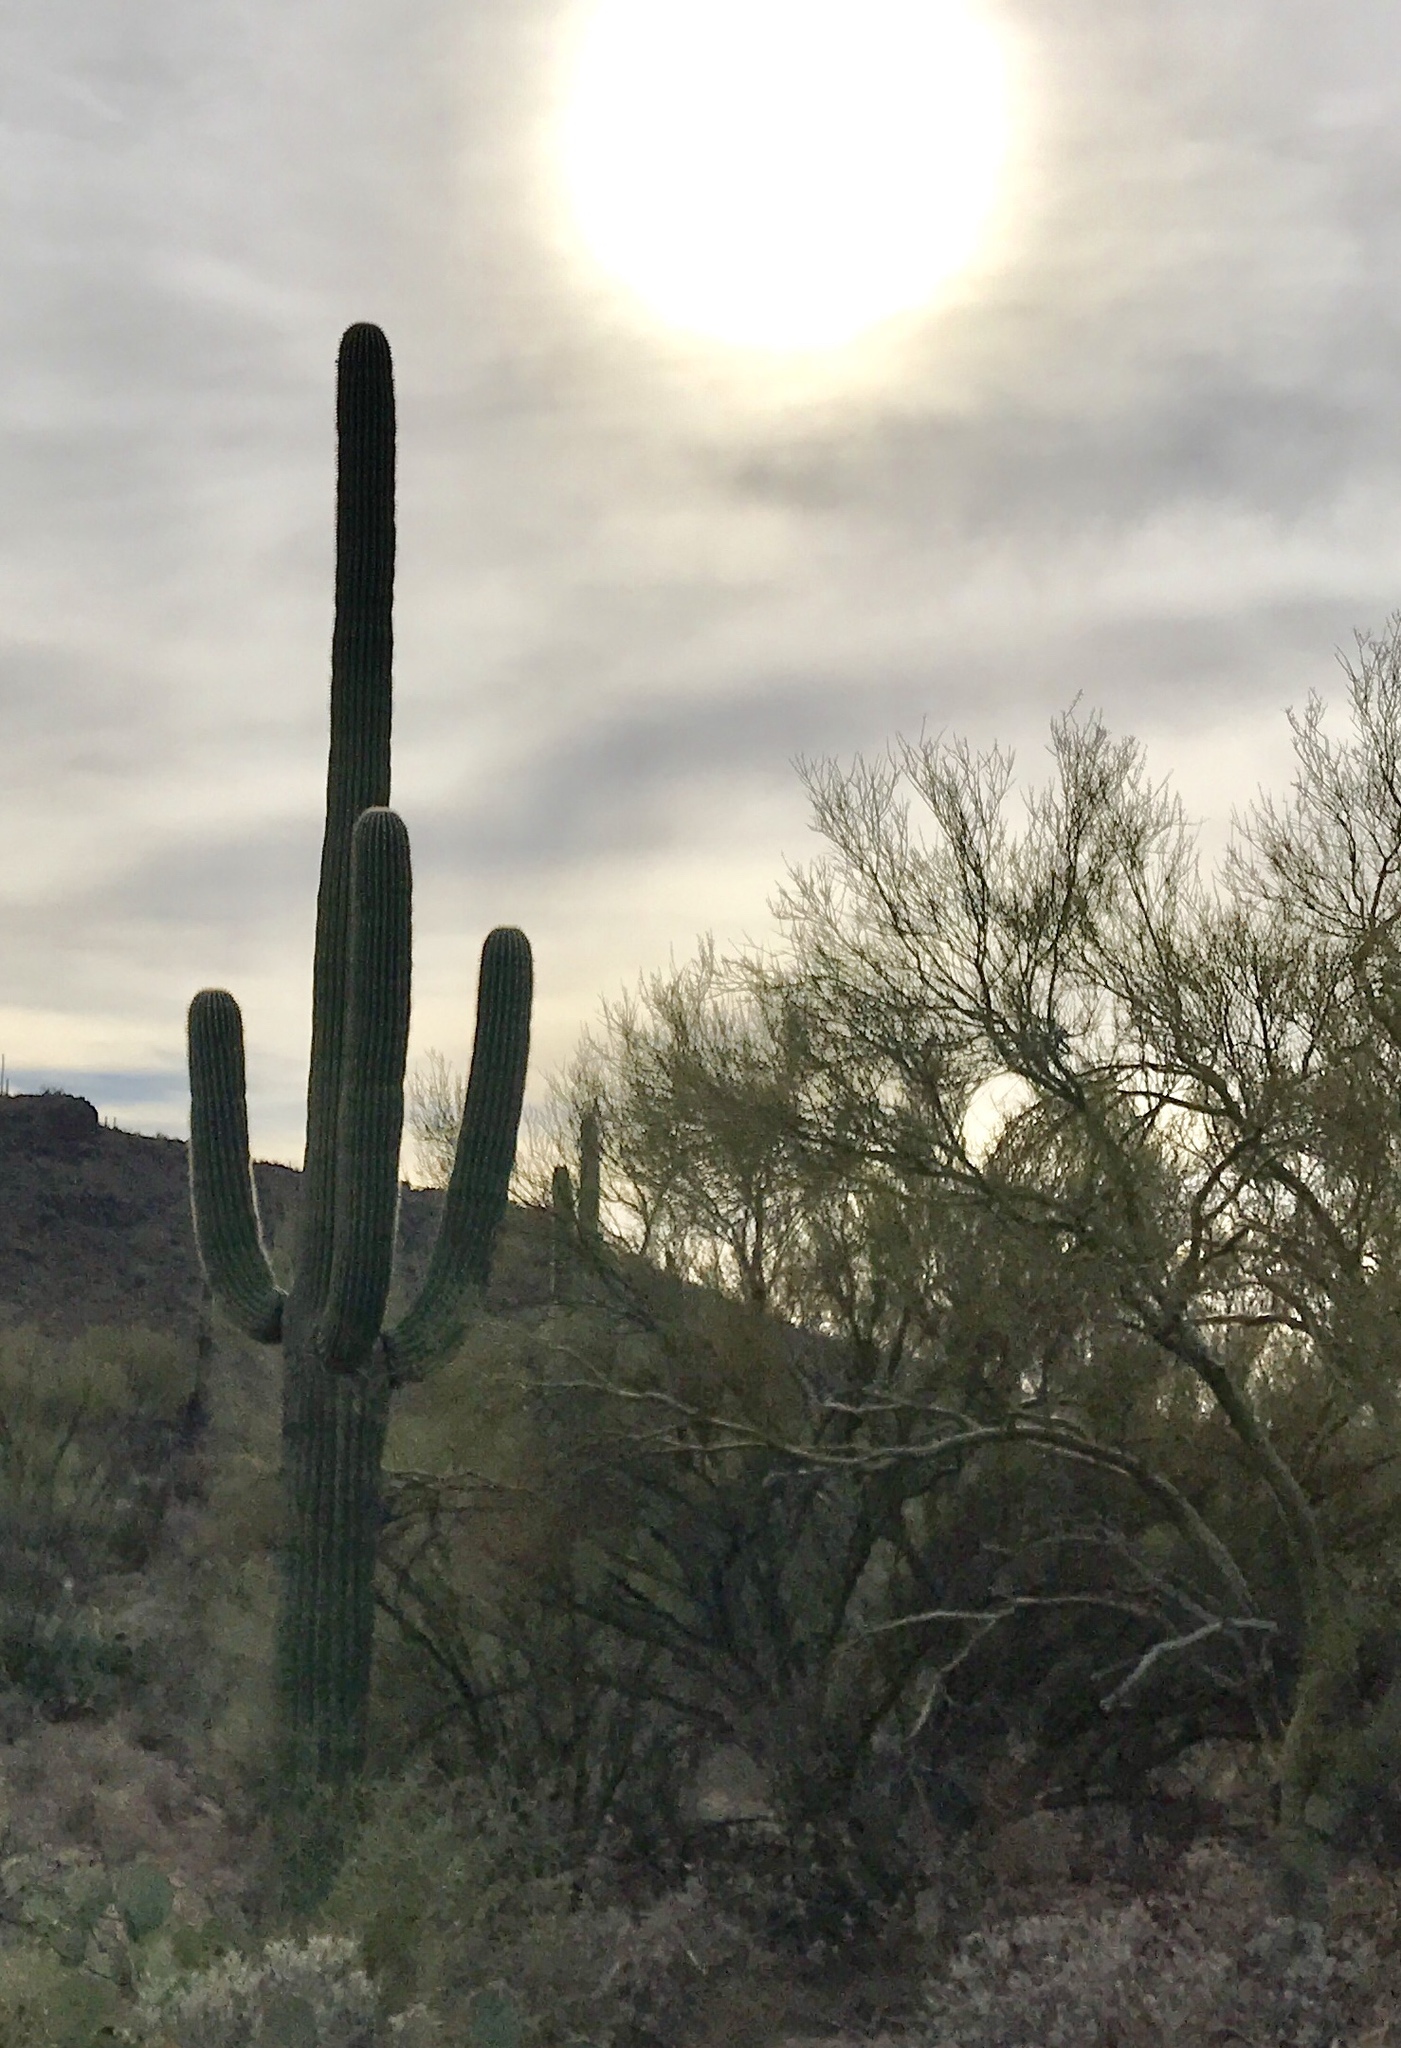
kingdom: Plantae
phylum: Tracheophyta
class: Magnoliopsida
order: Caryophyllales
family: Cactaceae
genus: Carnegiea
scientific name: Carnegiea gigantea
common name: Saguaro
